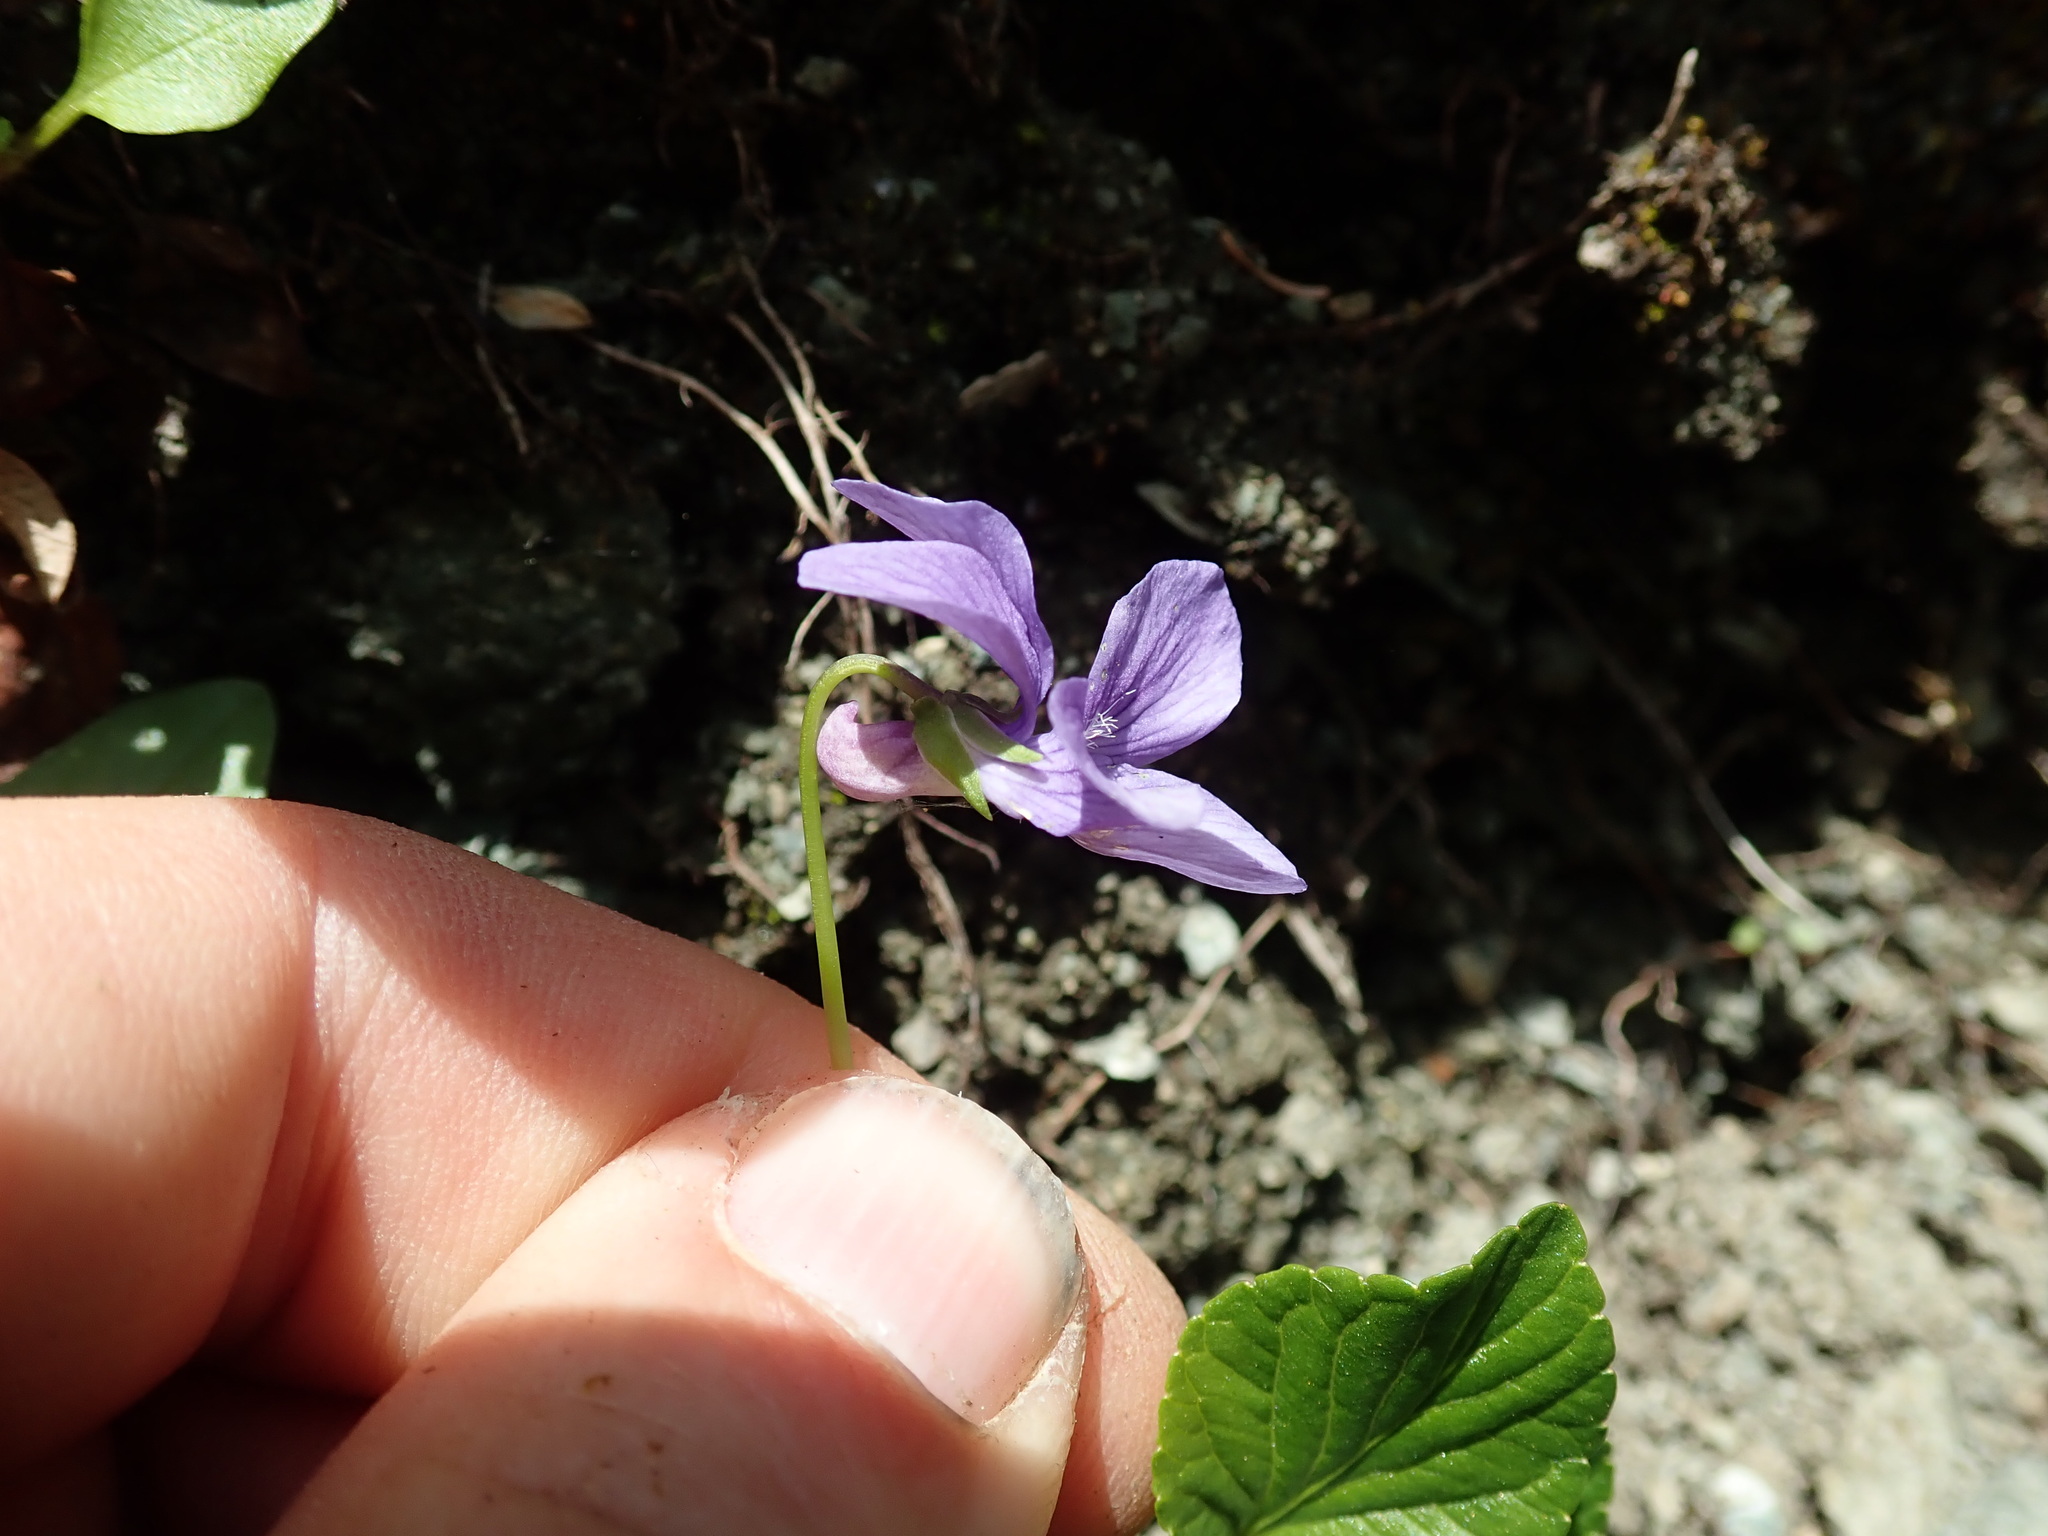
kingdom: Plantae
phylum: Tracheophyta
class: Magnoliopsida
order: Malpighiales
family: Violaceae
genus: Viola
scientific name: Viola adunca
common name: Sand violet
